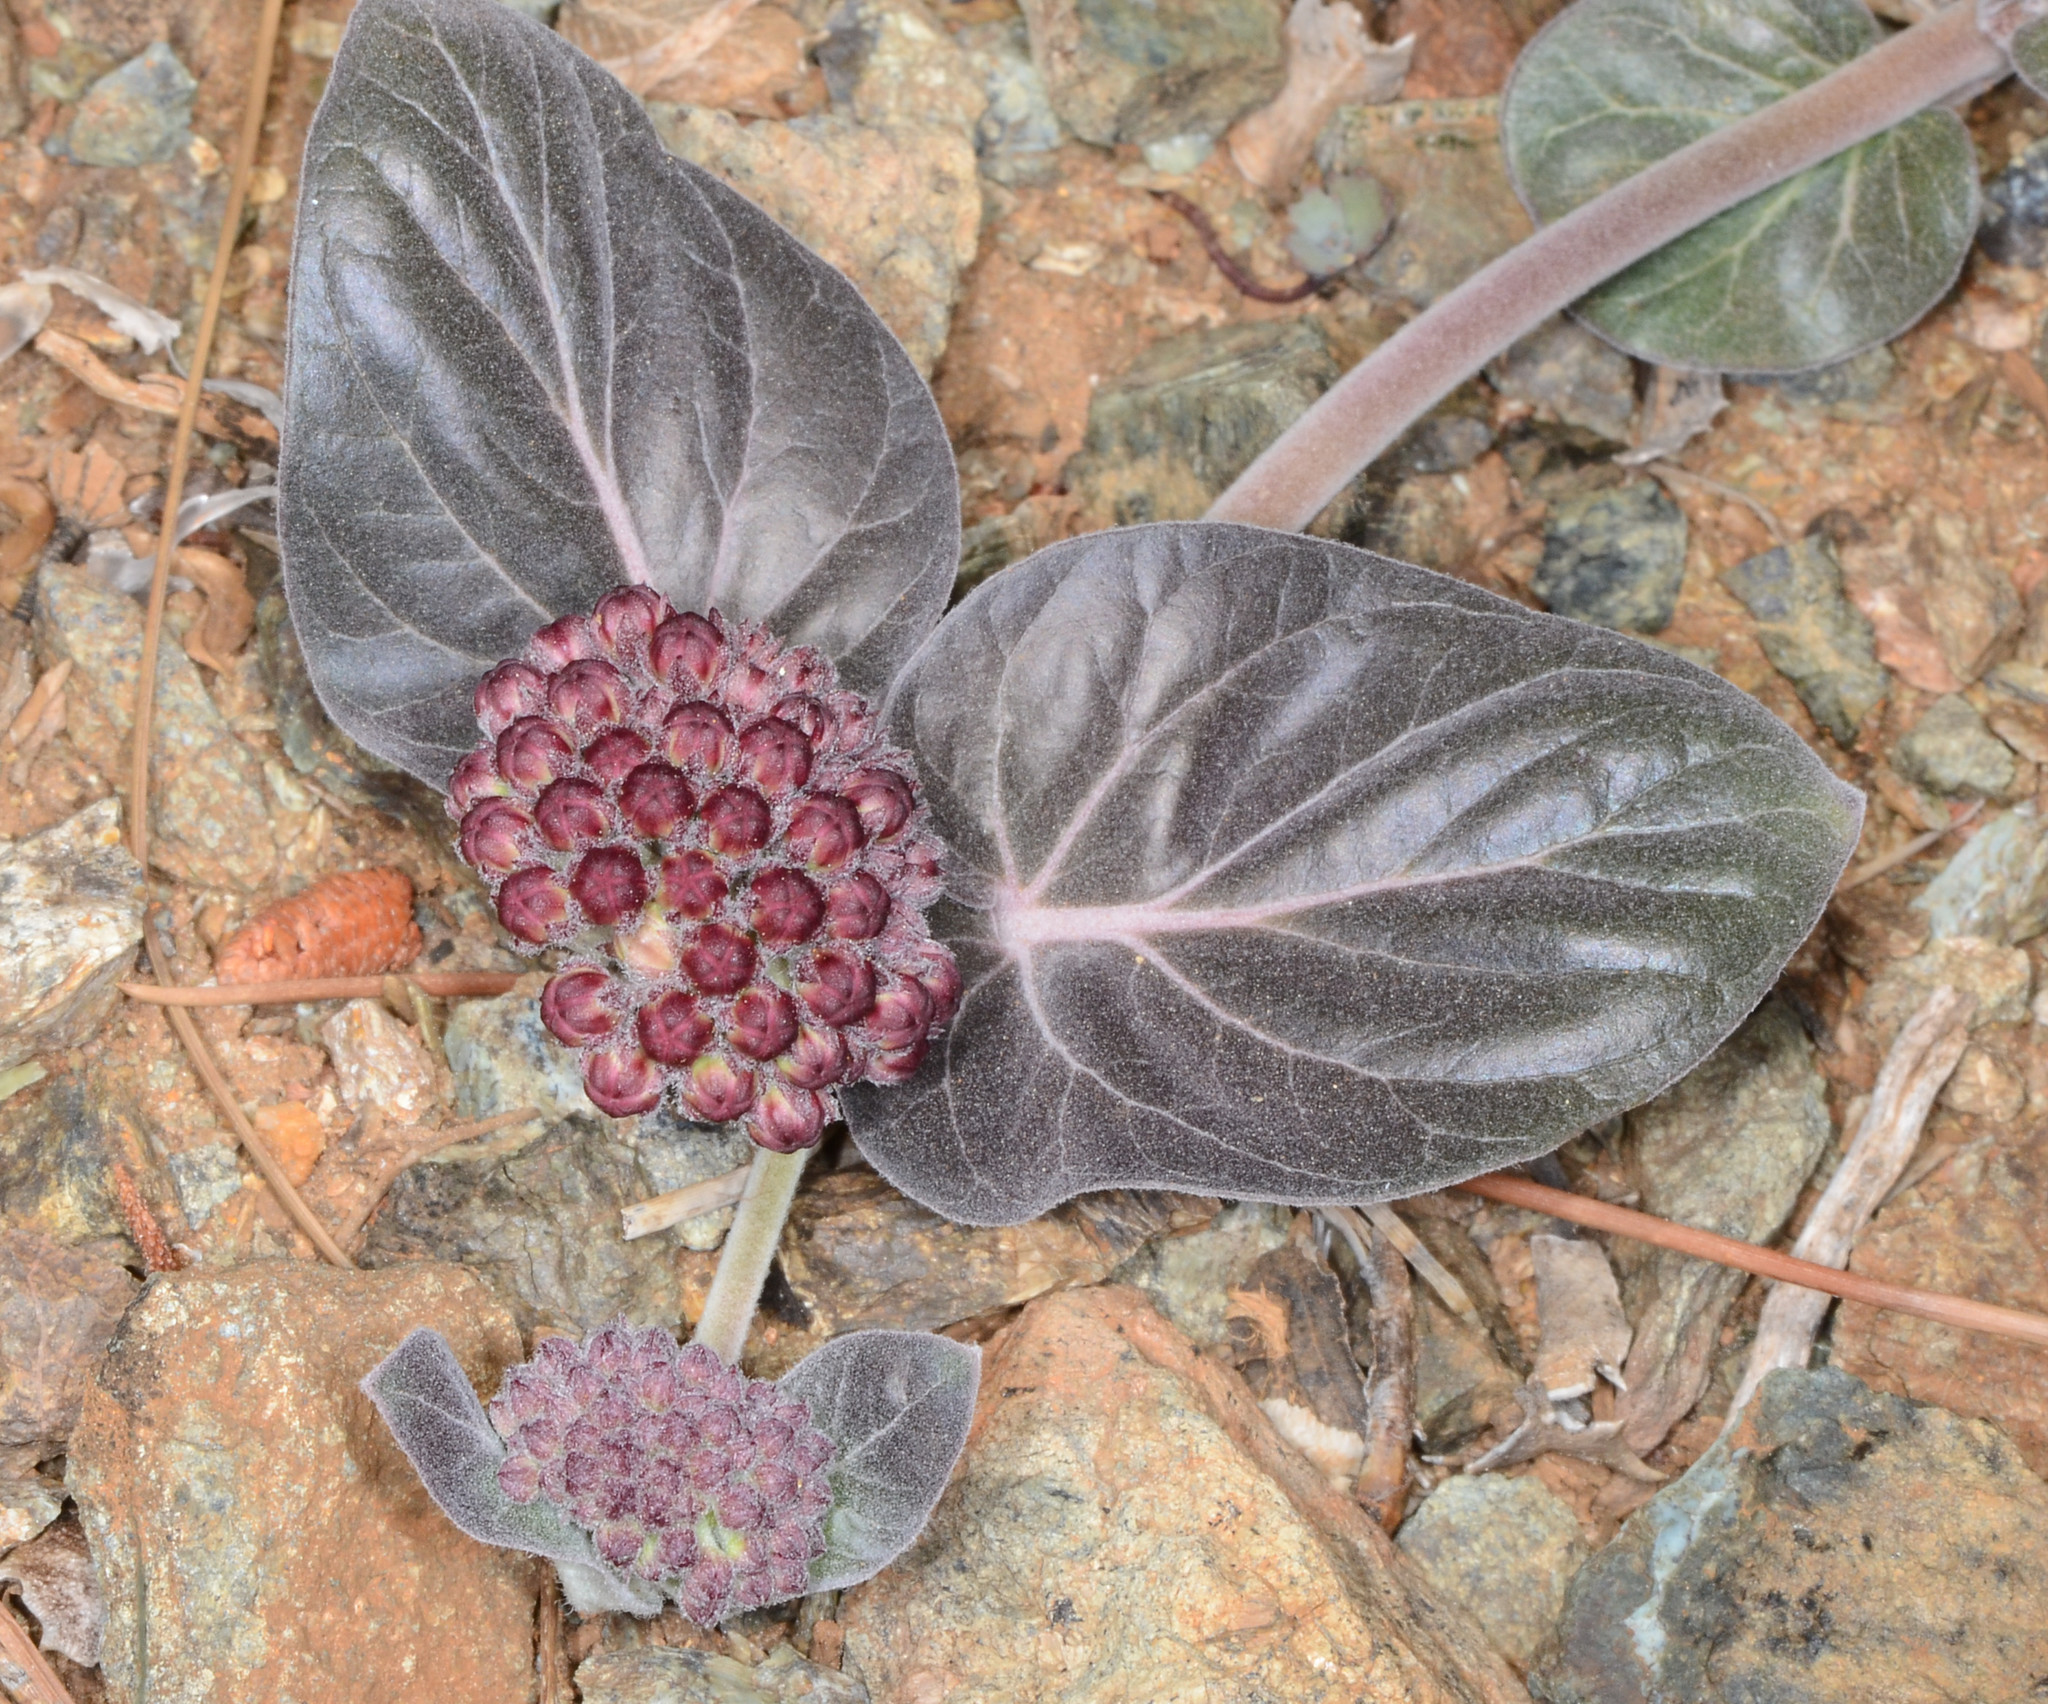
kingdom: Plantae
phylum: Tracheophyta
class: Magnoliopsida
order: Gentianales
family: Apocynaceae
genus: Asclepias
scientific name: Asclepias solanoana
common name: Serpentine milkweed
